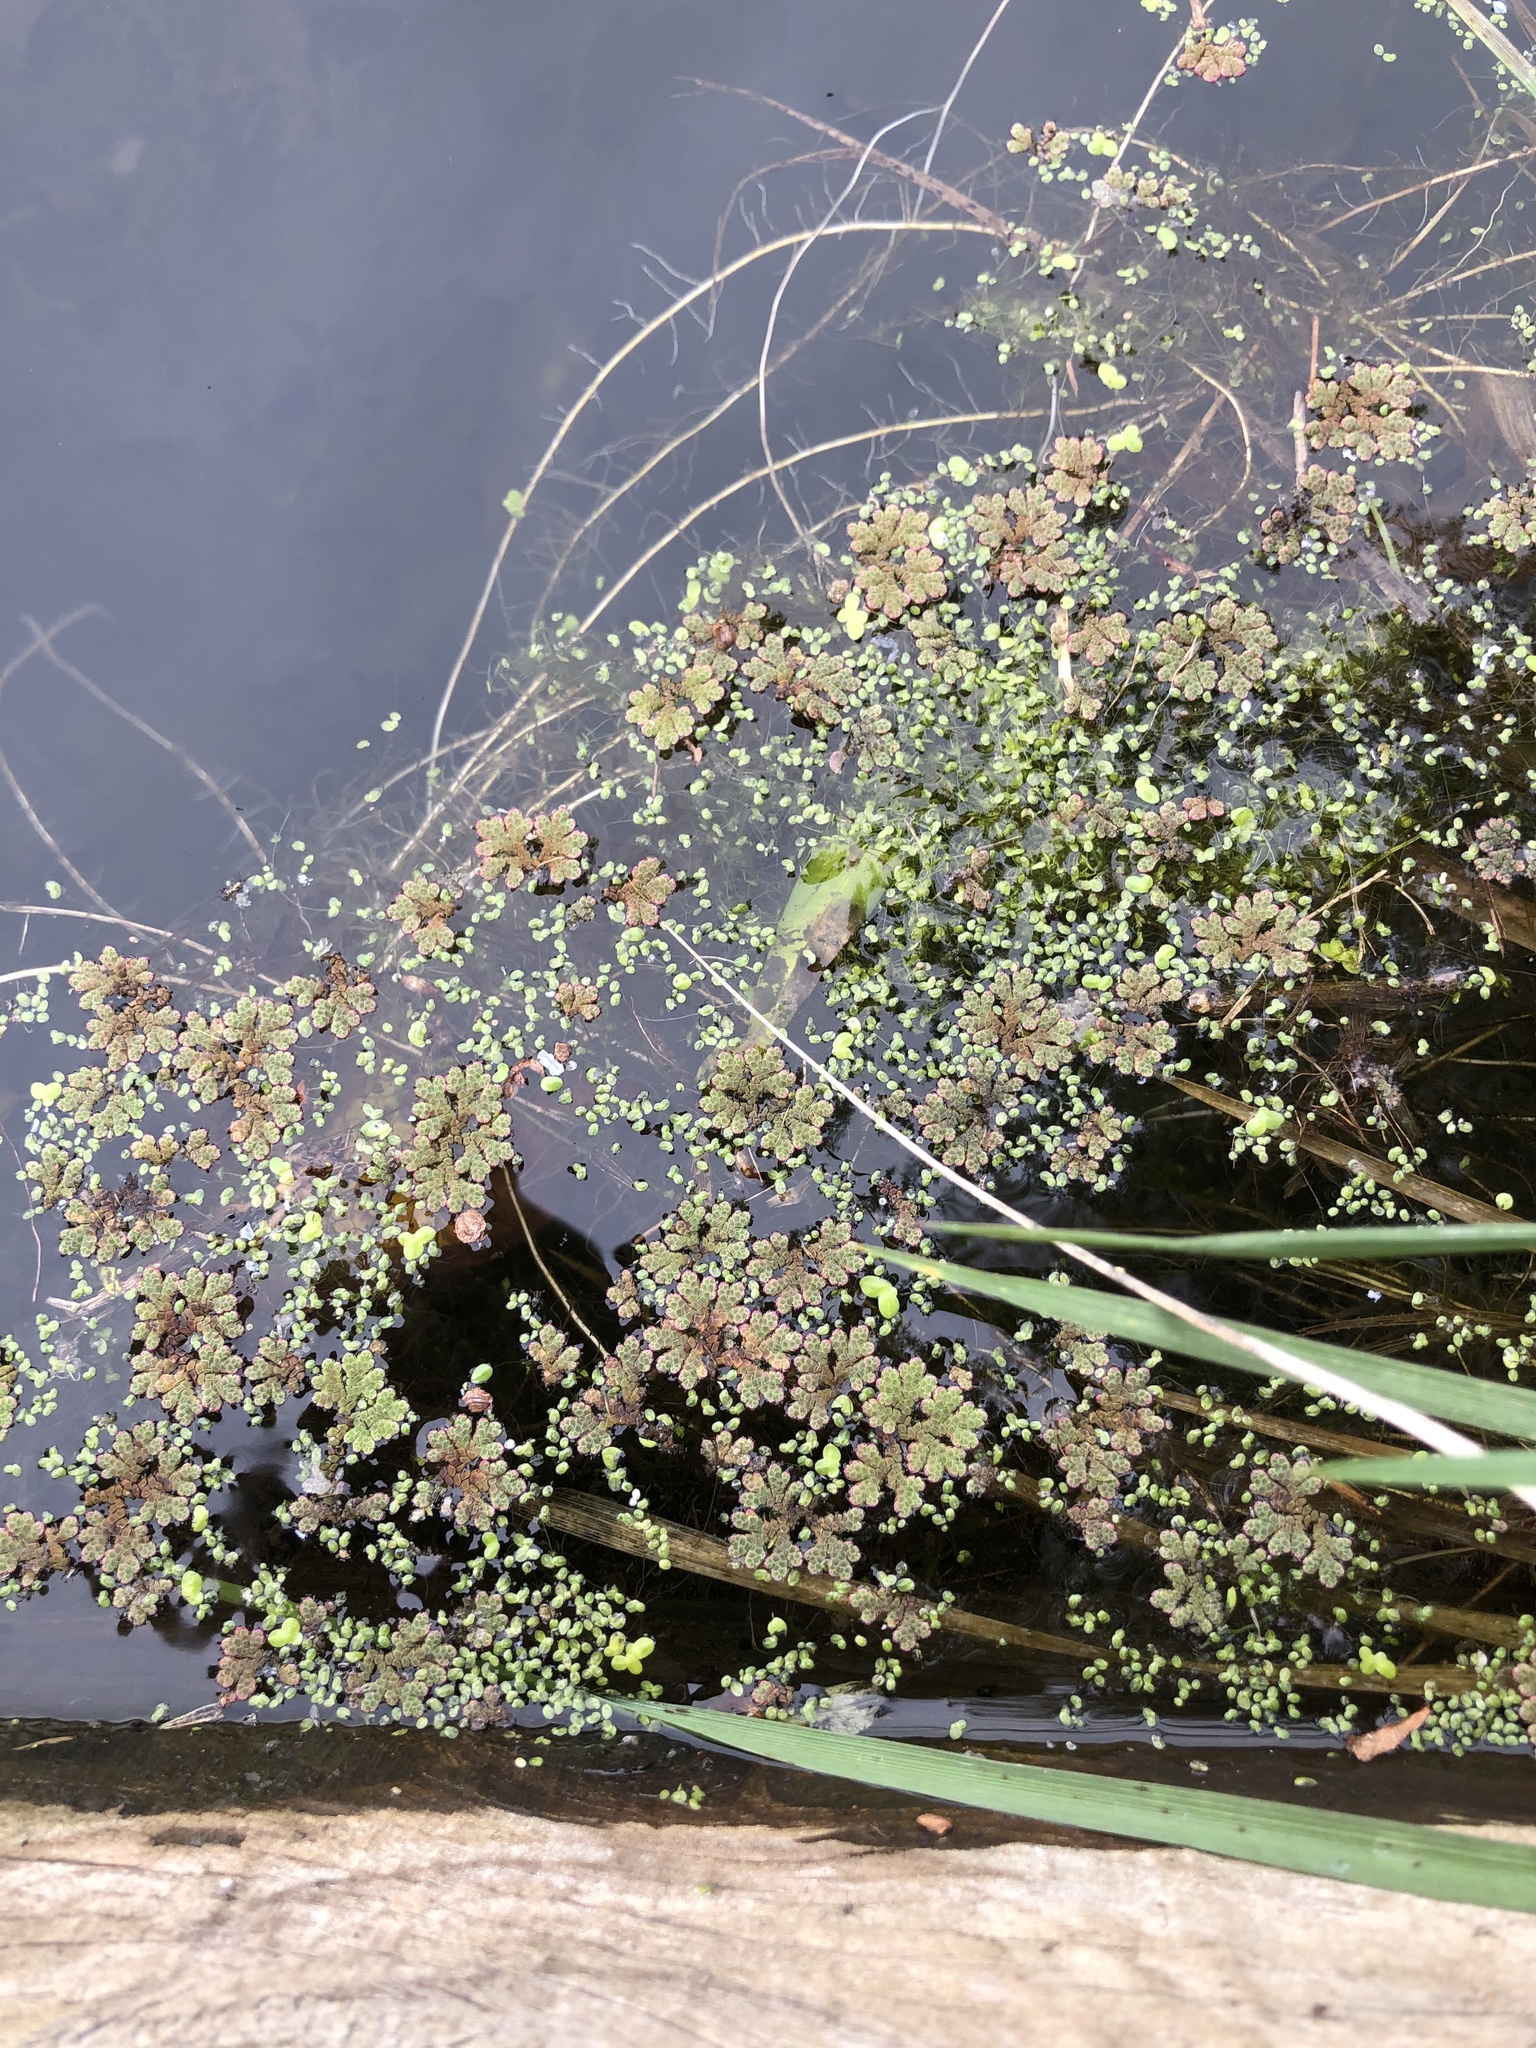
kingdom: Plantae
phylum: Tracheophyta
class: Polypodiopsida
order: Salviniales
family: Salviniaceae
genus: Azolla
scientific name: Azolla rubra
